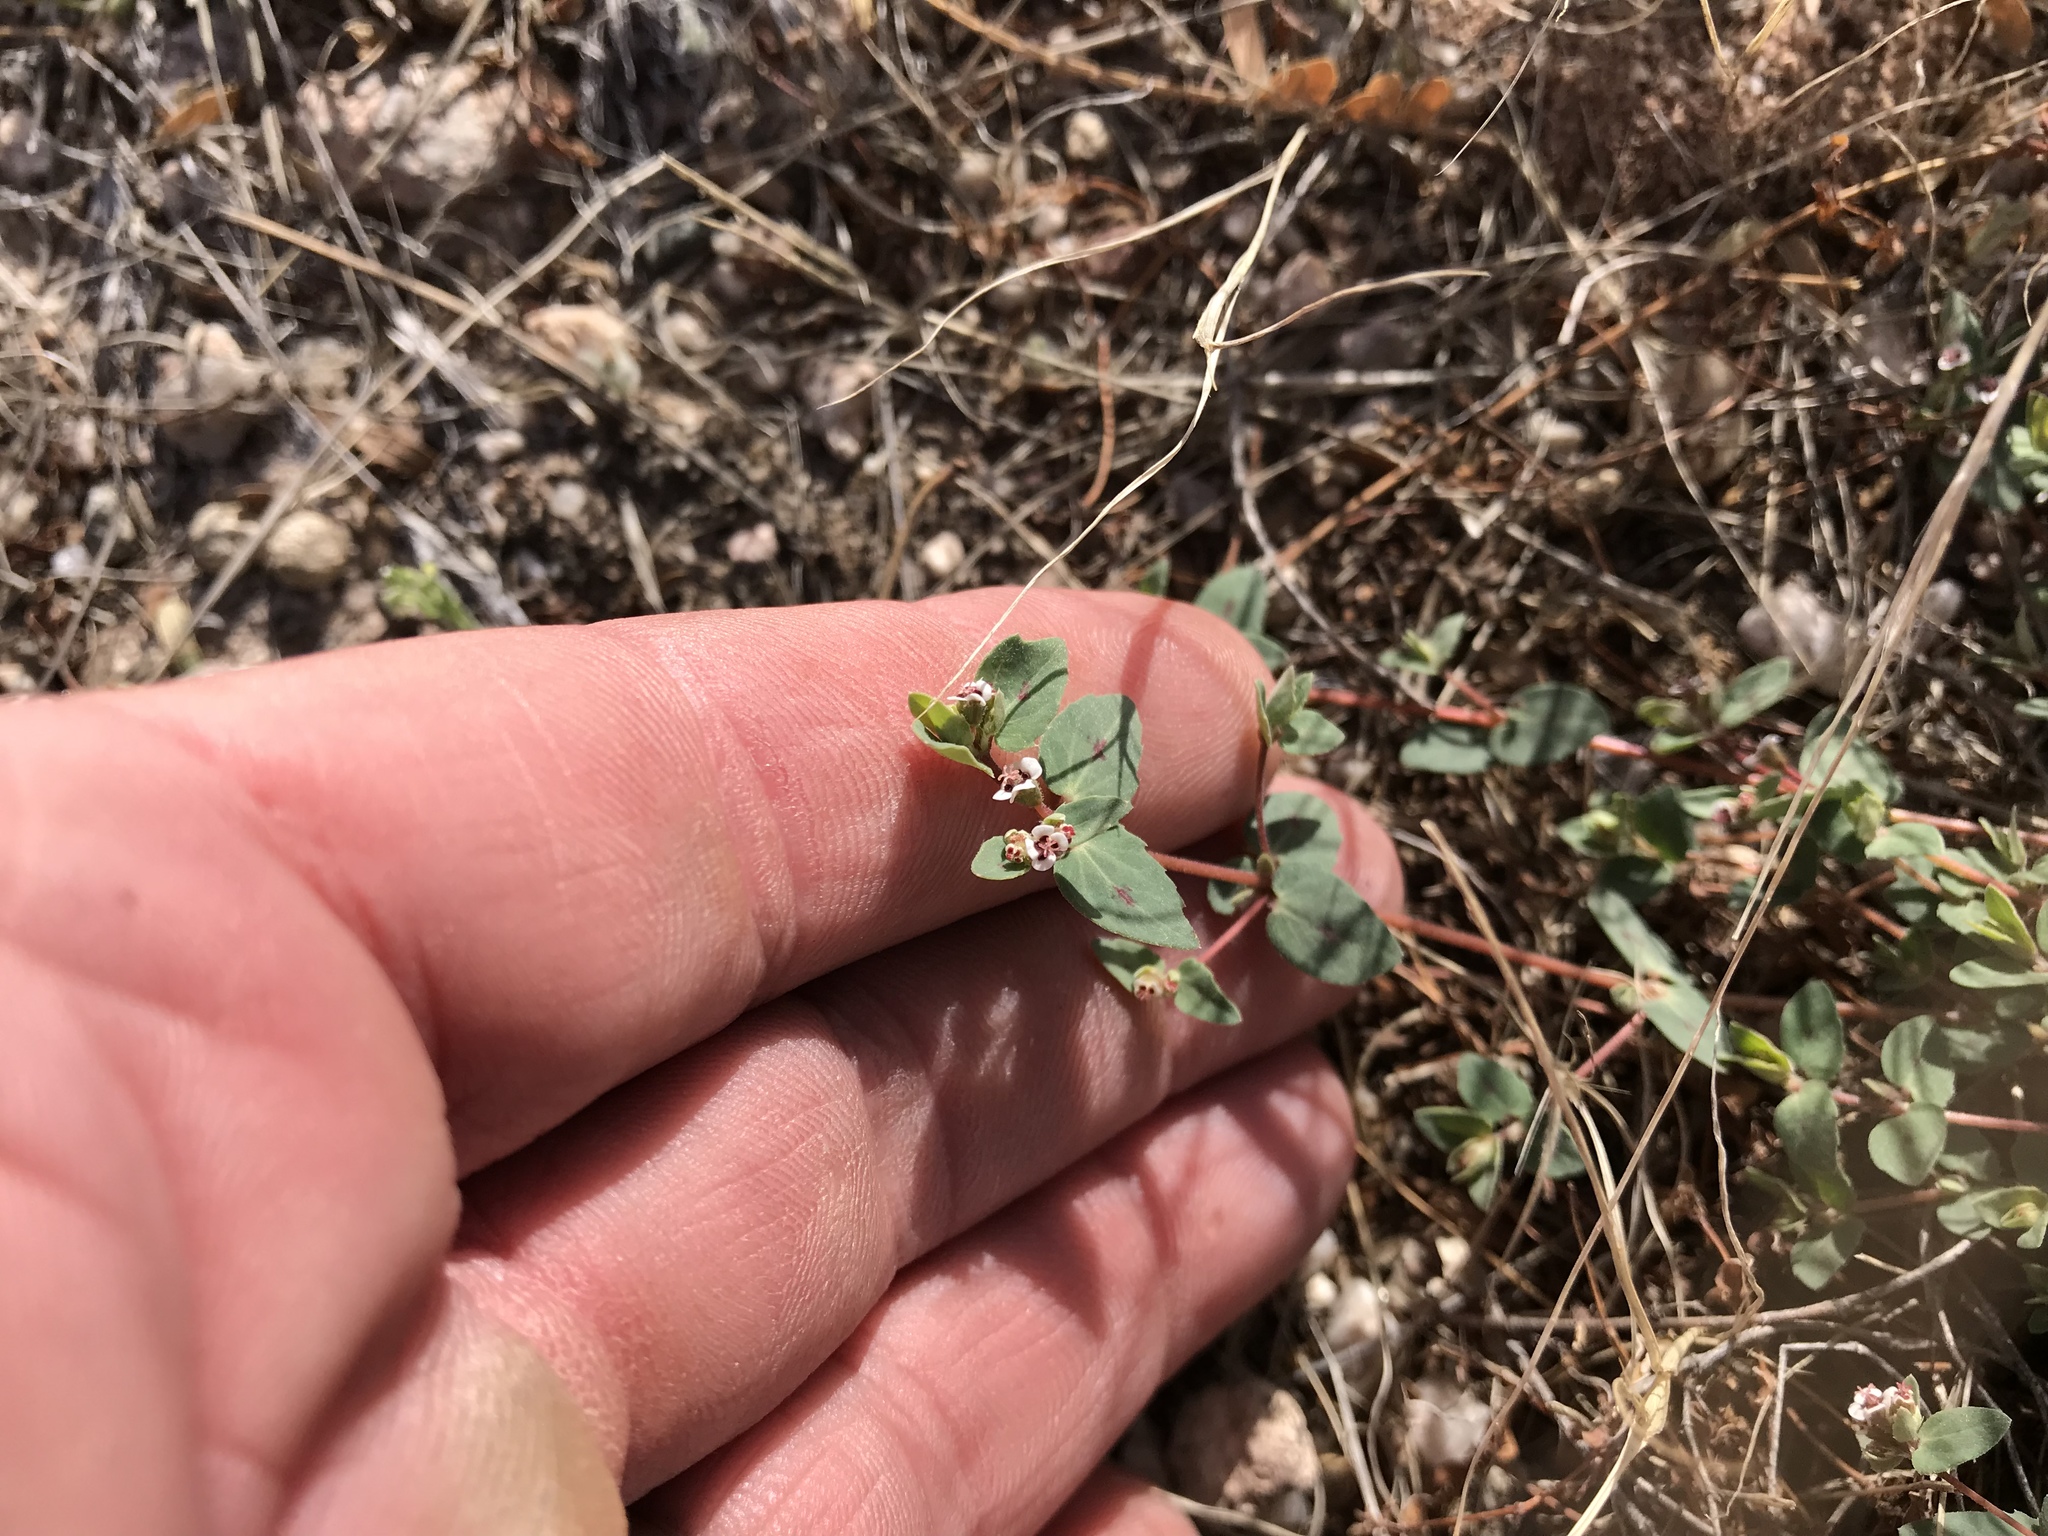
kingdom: Plantae
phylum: Tracheophyta
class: Magnoliopsida
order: Malpighiales
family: Euphorbiaceae
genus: Euphorbia
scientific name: Euphorbia capitellata
